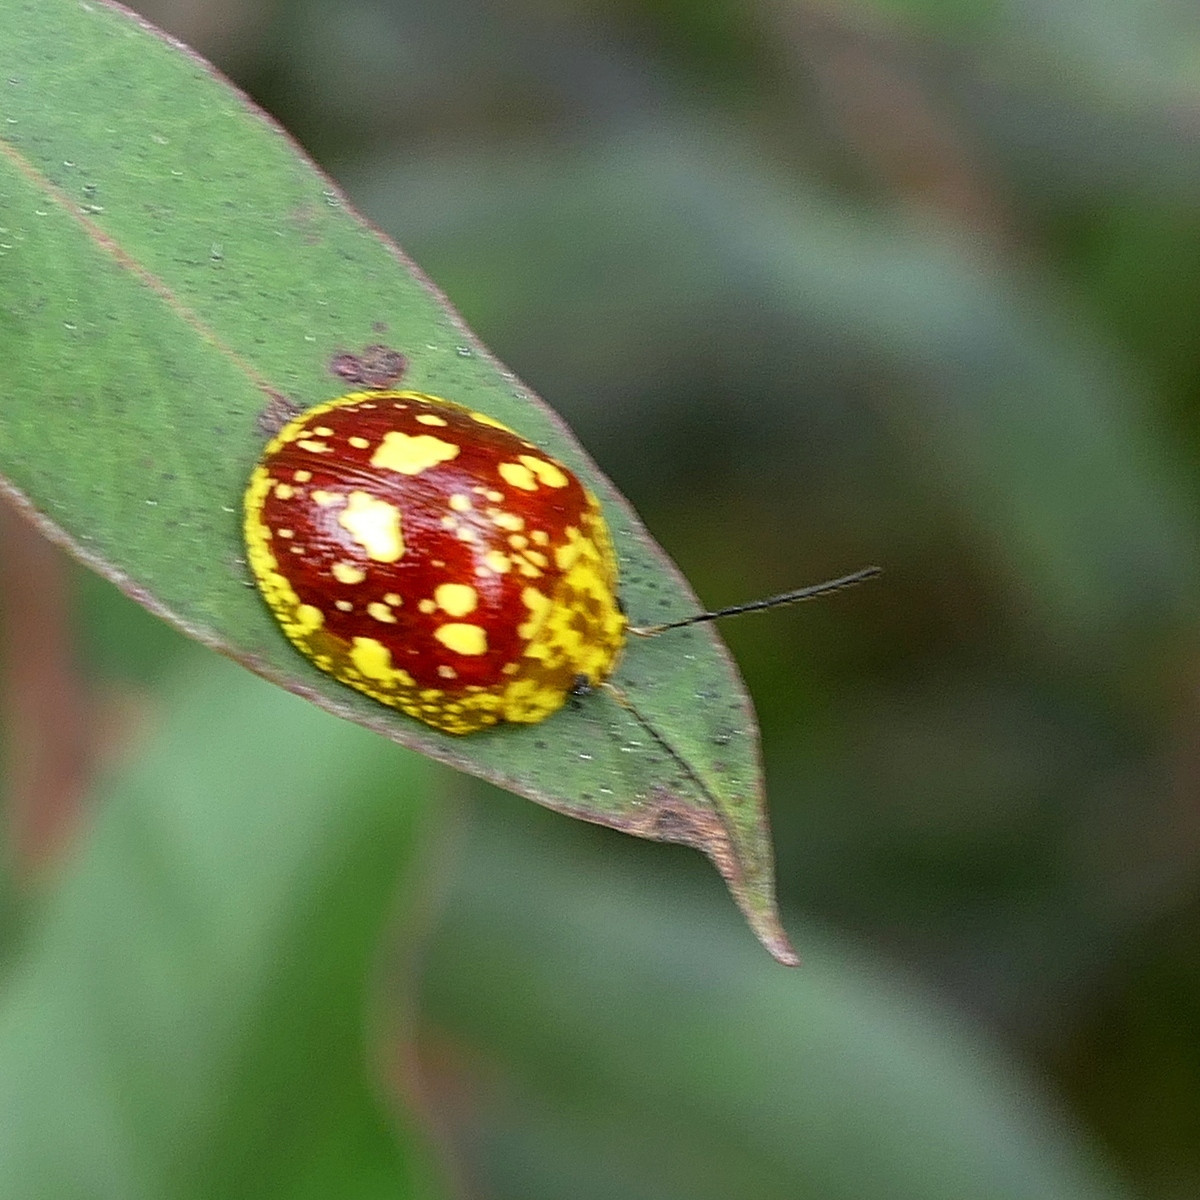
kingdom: Animalia
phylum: Arthropoda
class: Insecta
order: Coleoptera
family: Chrysomelidae
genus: Paropsis
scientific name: Paropsis maculata
